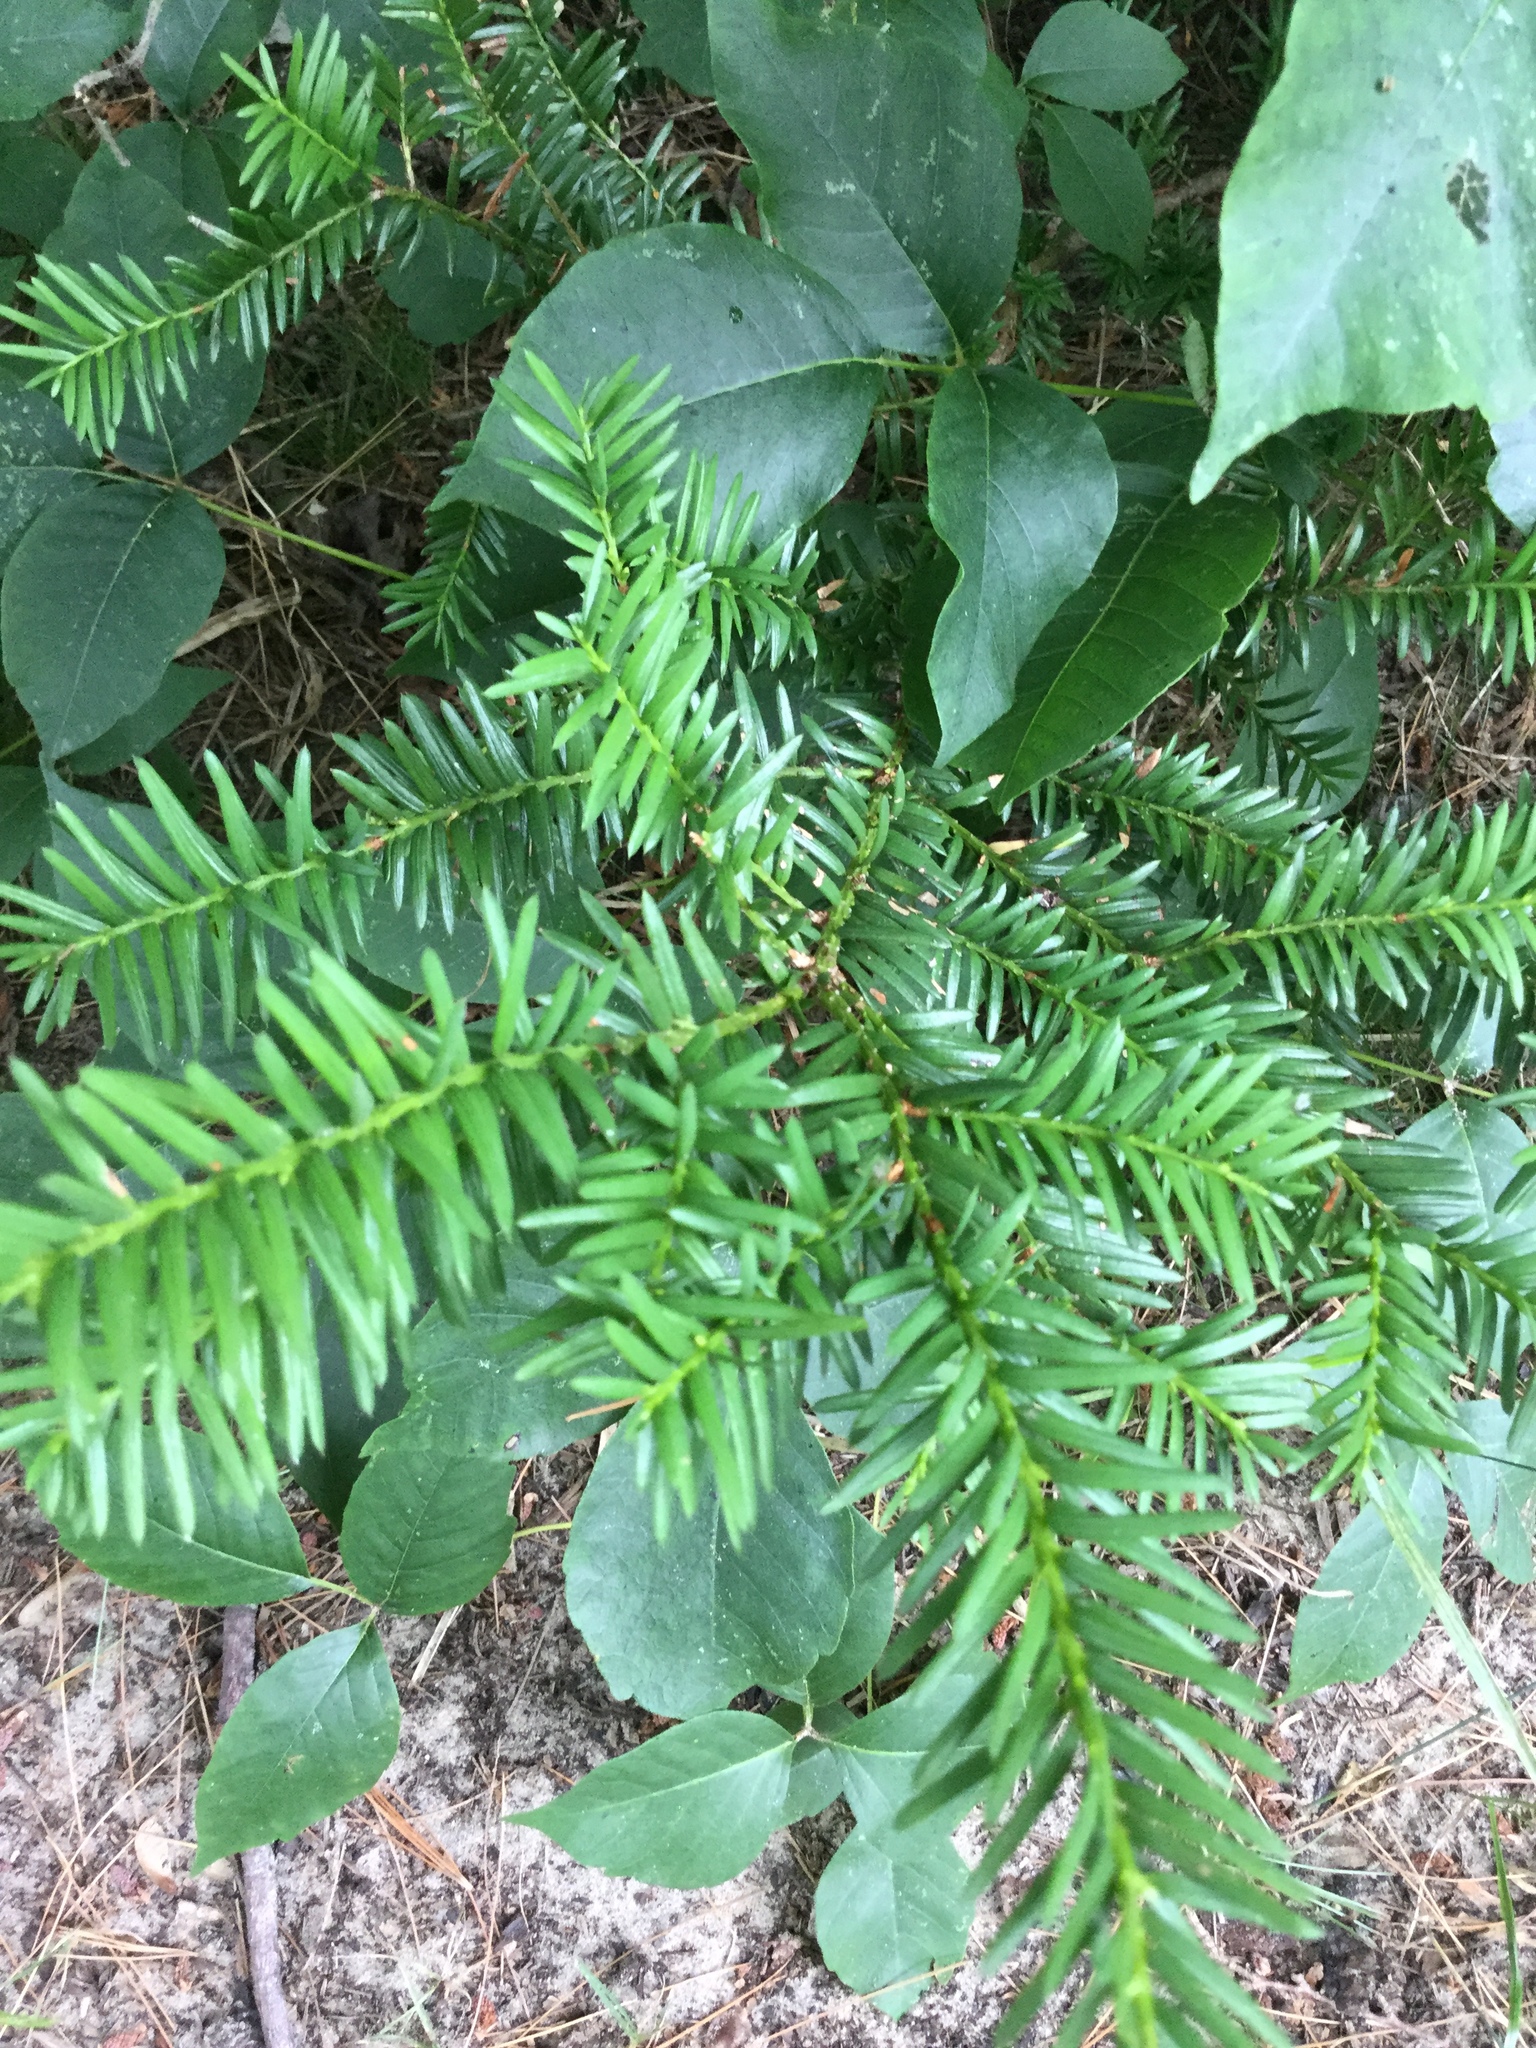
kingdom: Plantae
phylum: Tracheophyta
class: Pinopsida
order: Pinales
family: Taxaceae
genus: Taxus
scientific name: Taxus canadensis
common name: American yew
